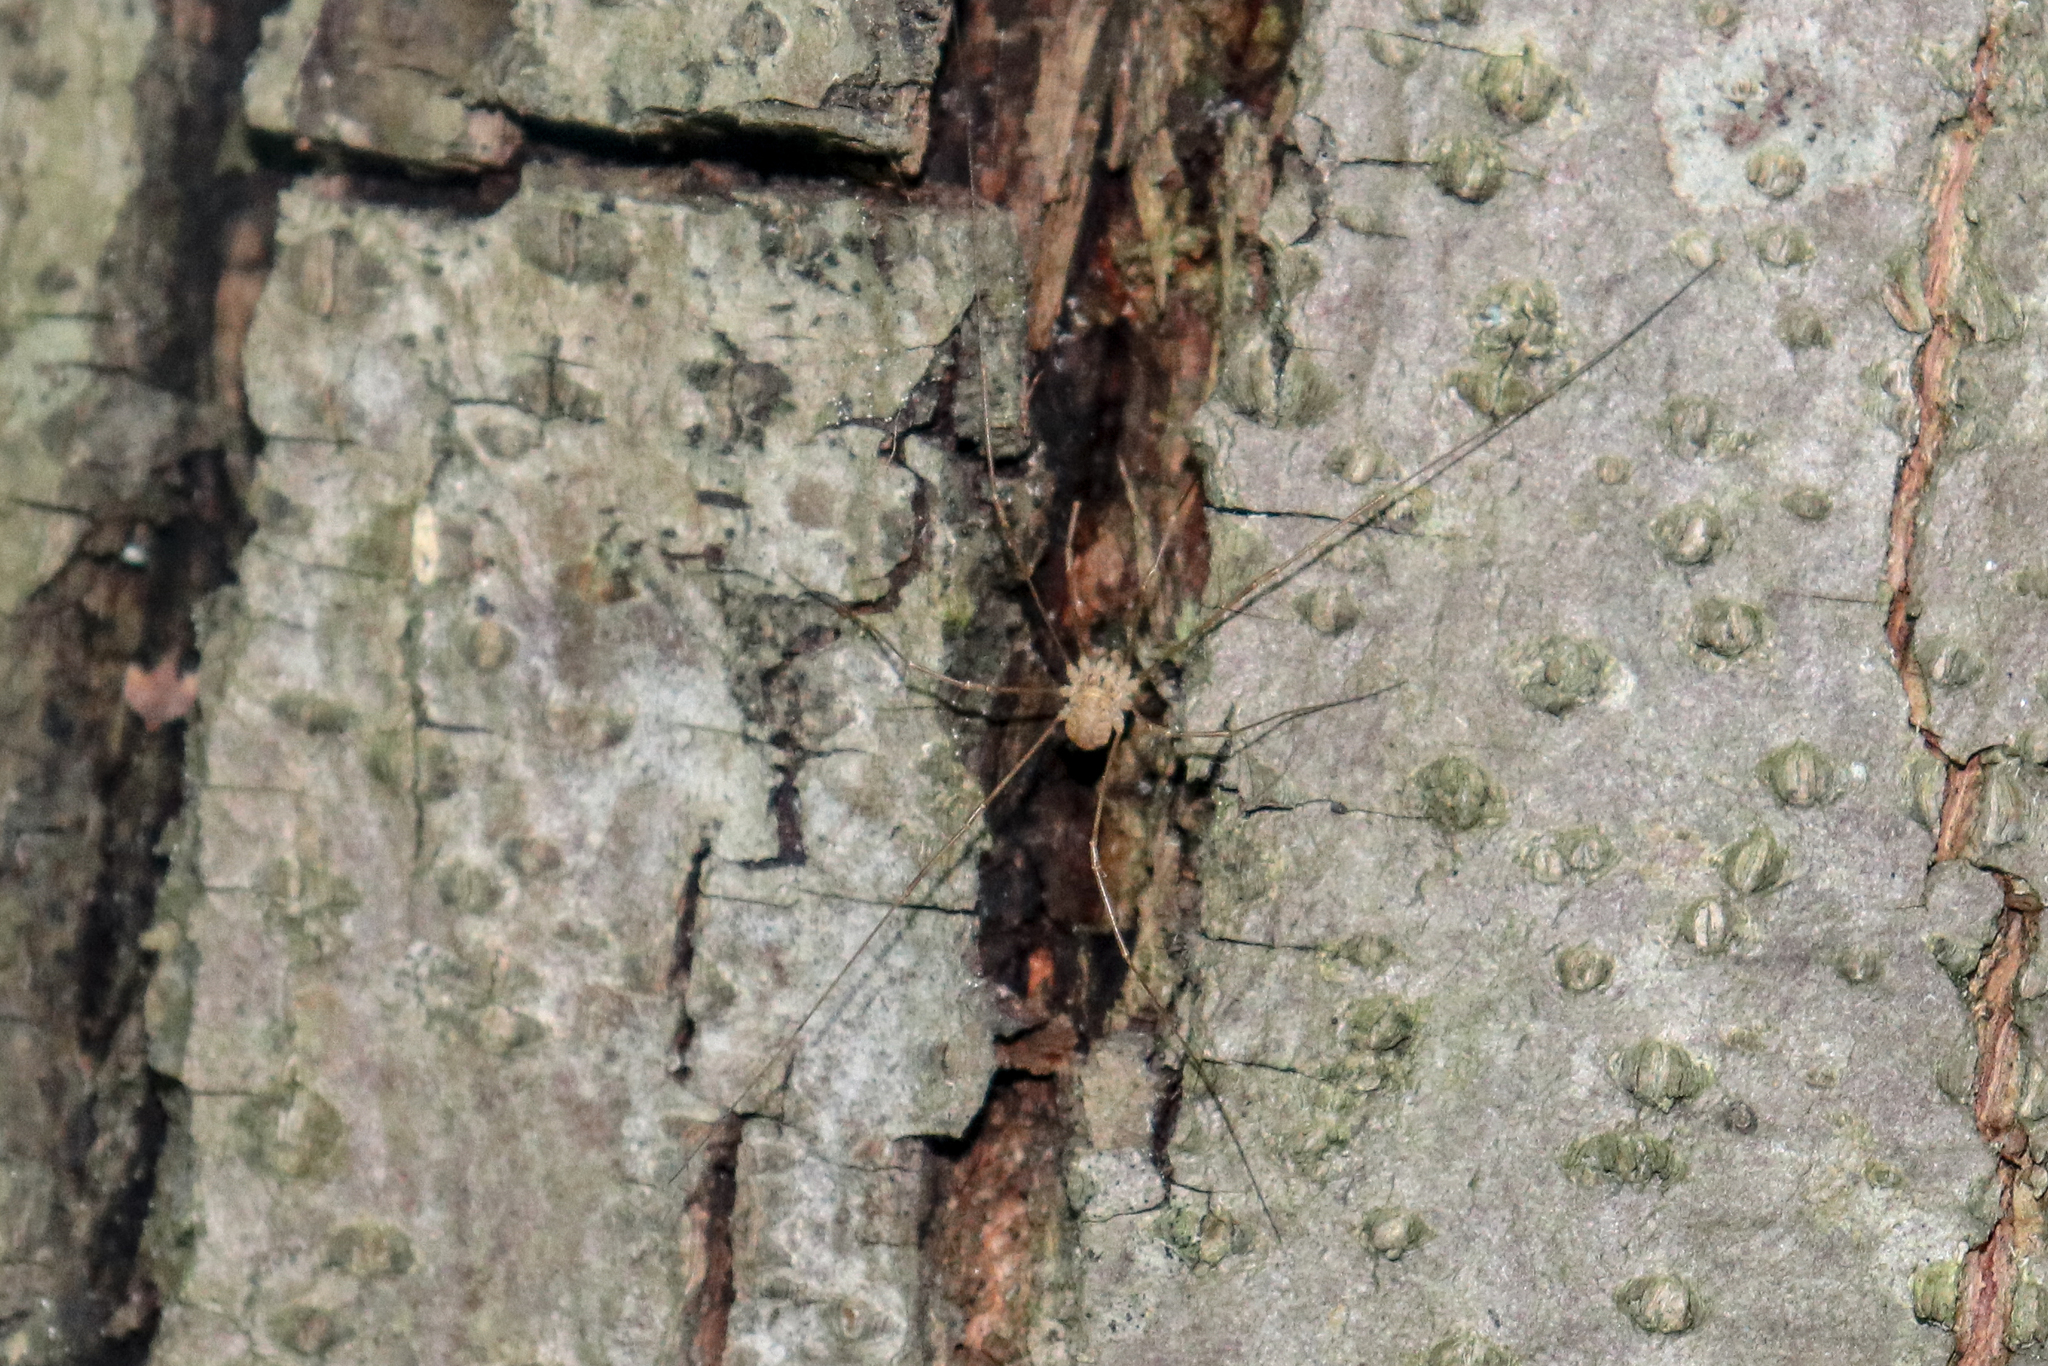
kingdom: Animalia
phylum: Arthropoda
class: Arachnida
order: Opiliones
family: Phalangiidae
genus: Rilaena
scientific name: Rilaena triangularis
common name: Spring harvestman
